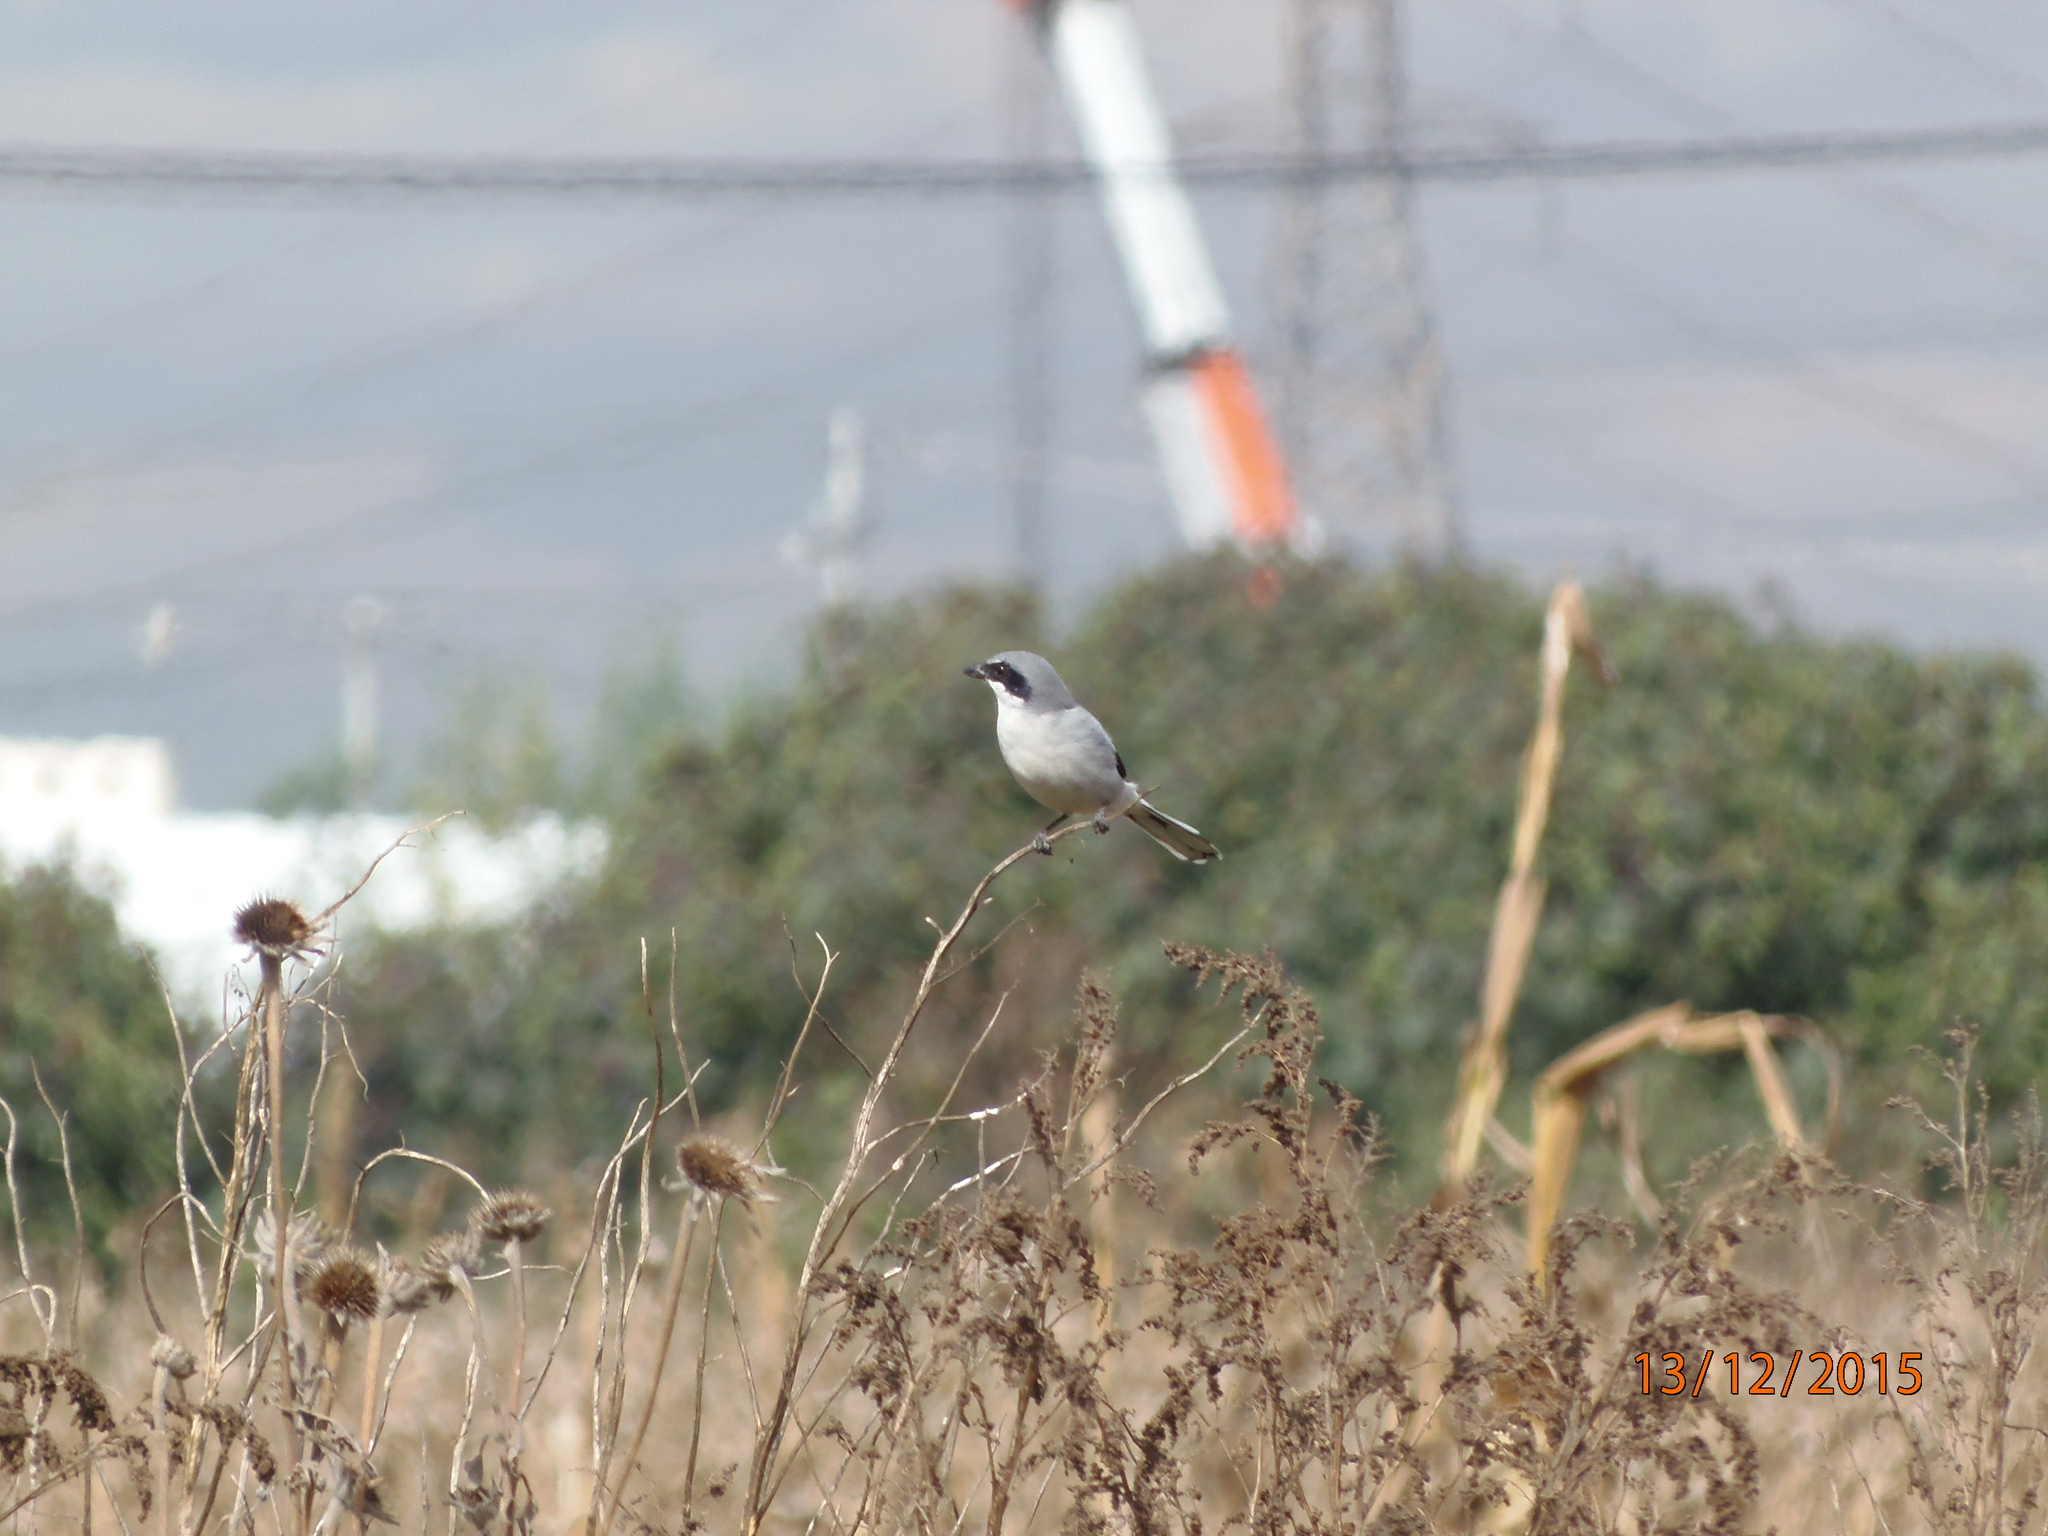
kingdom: Animalia
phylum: Chordata
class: Aves
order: Passeriformes
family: Laniidae
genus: Lanius
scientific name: Lanius ludovicianus
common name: Loggerhead shrike
